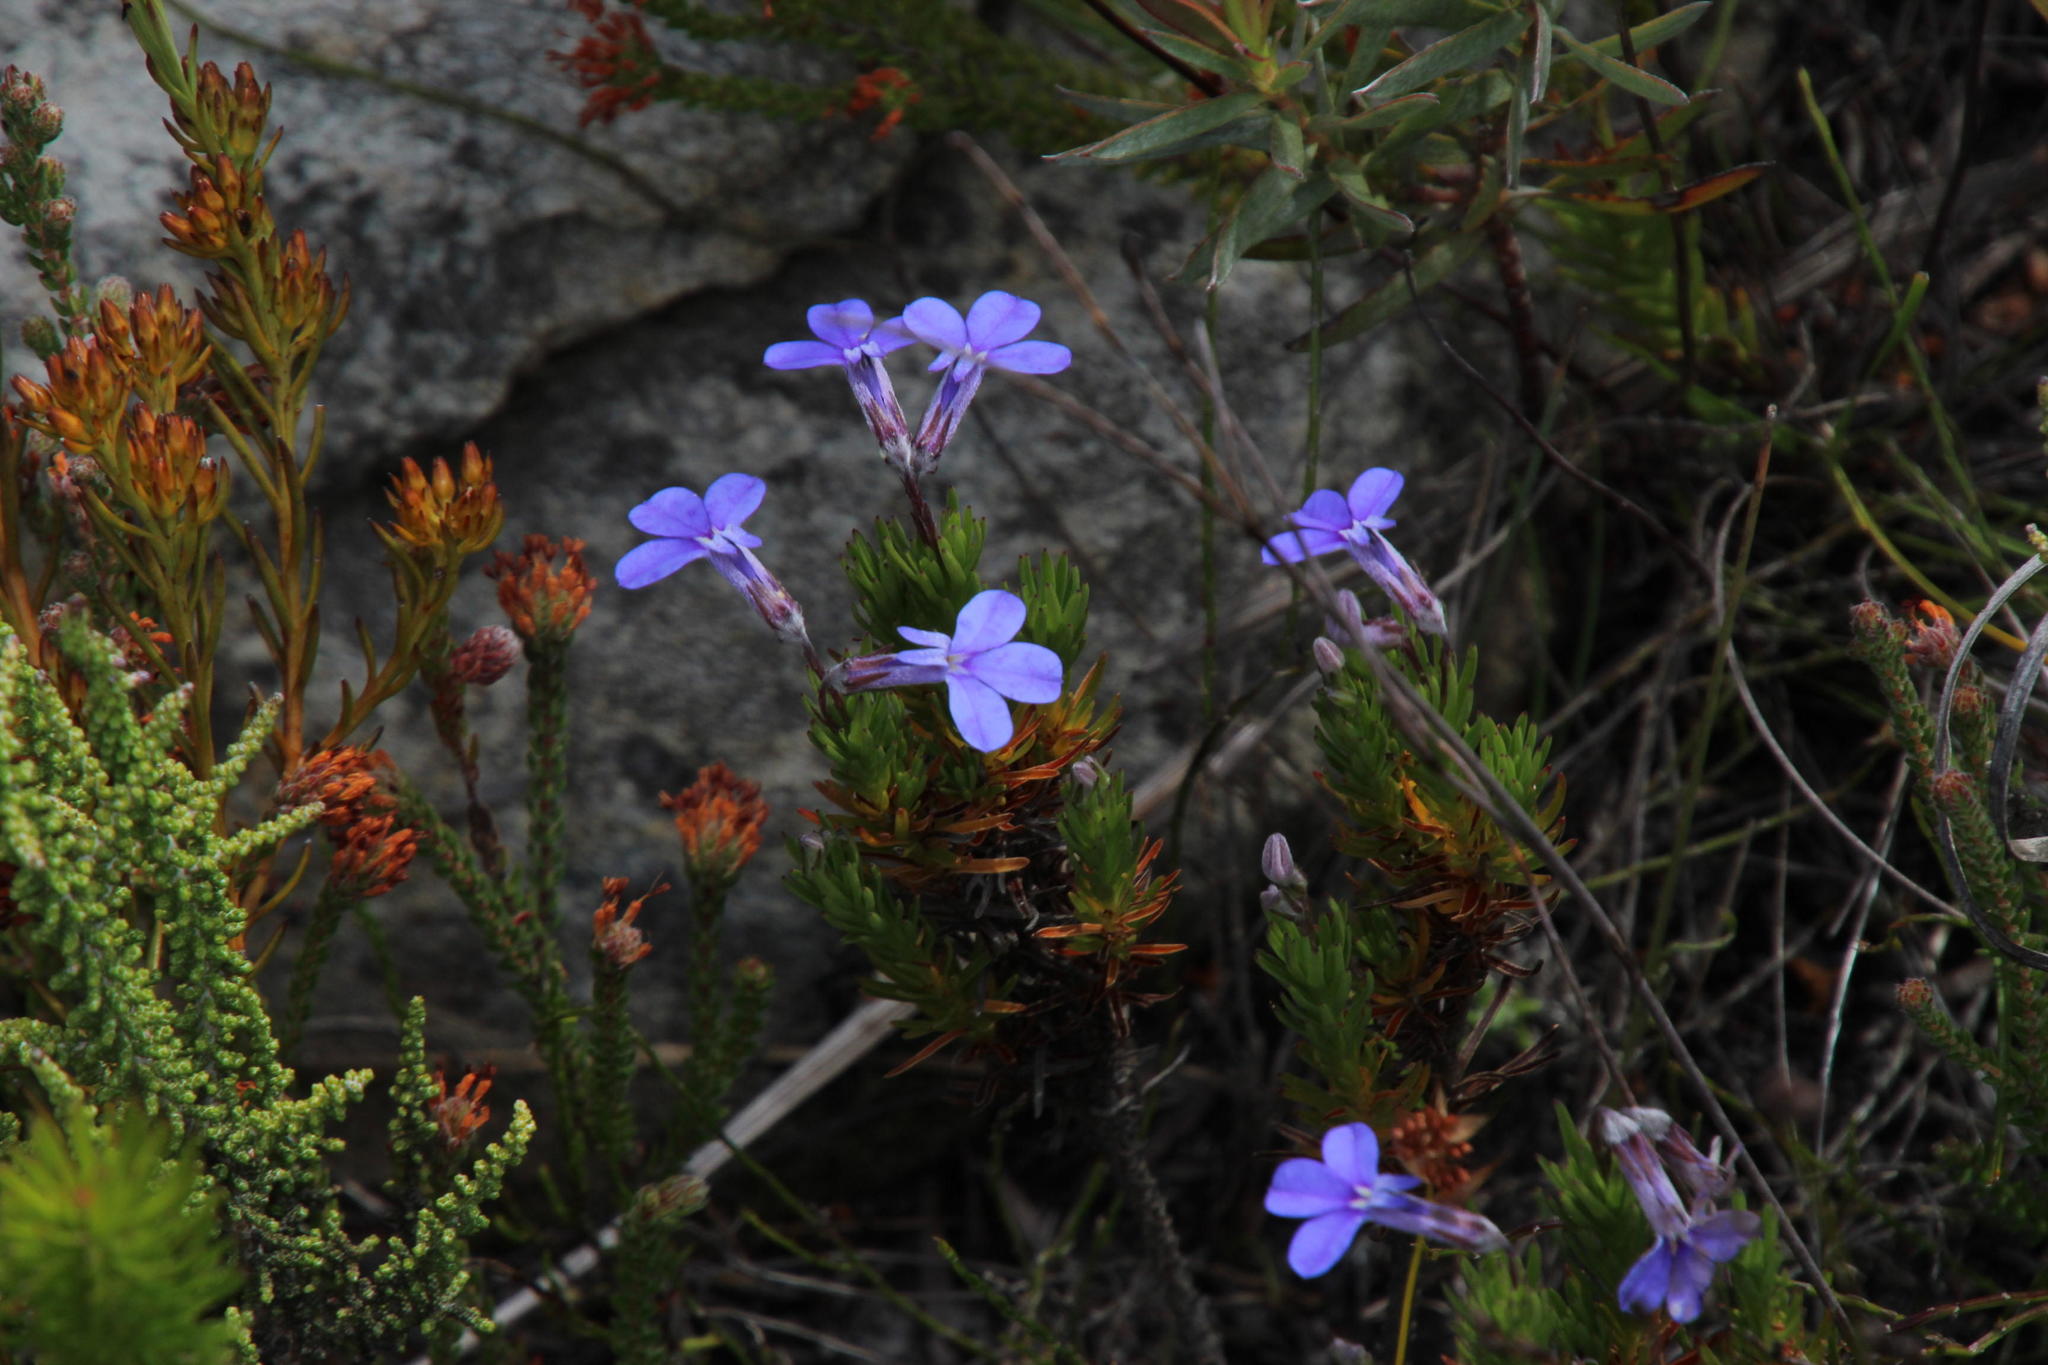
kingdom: Plantae
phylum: Tracheophyta
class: Magnoliopsida
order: Asterales
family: Campanulaceae
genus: Lobelia
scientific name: Lobelia pinifolia
